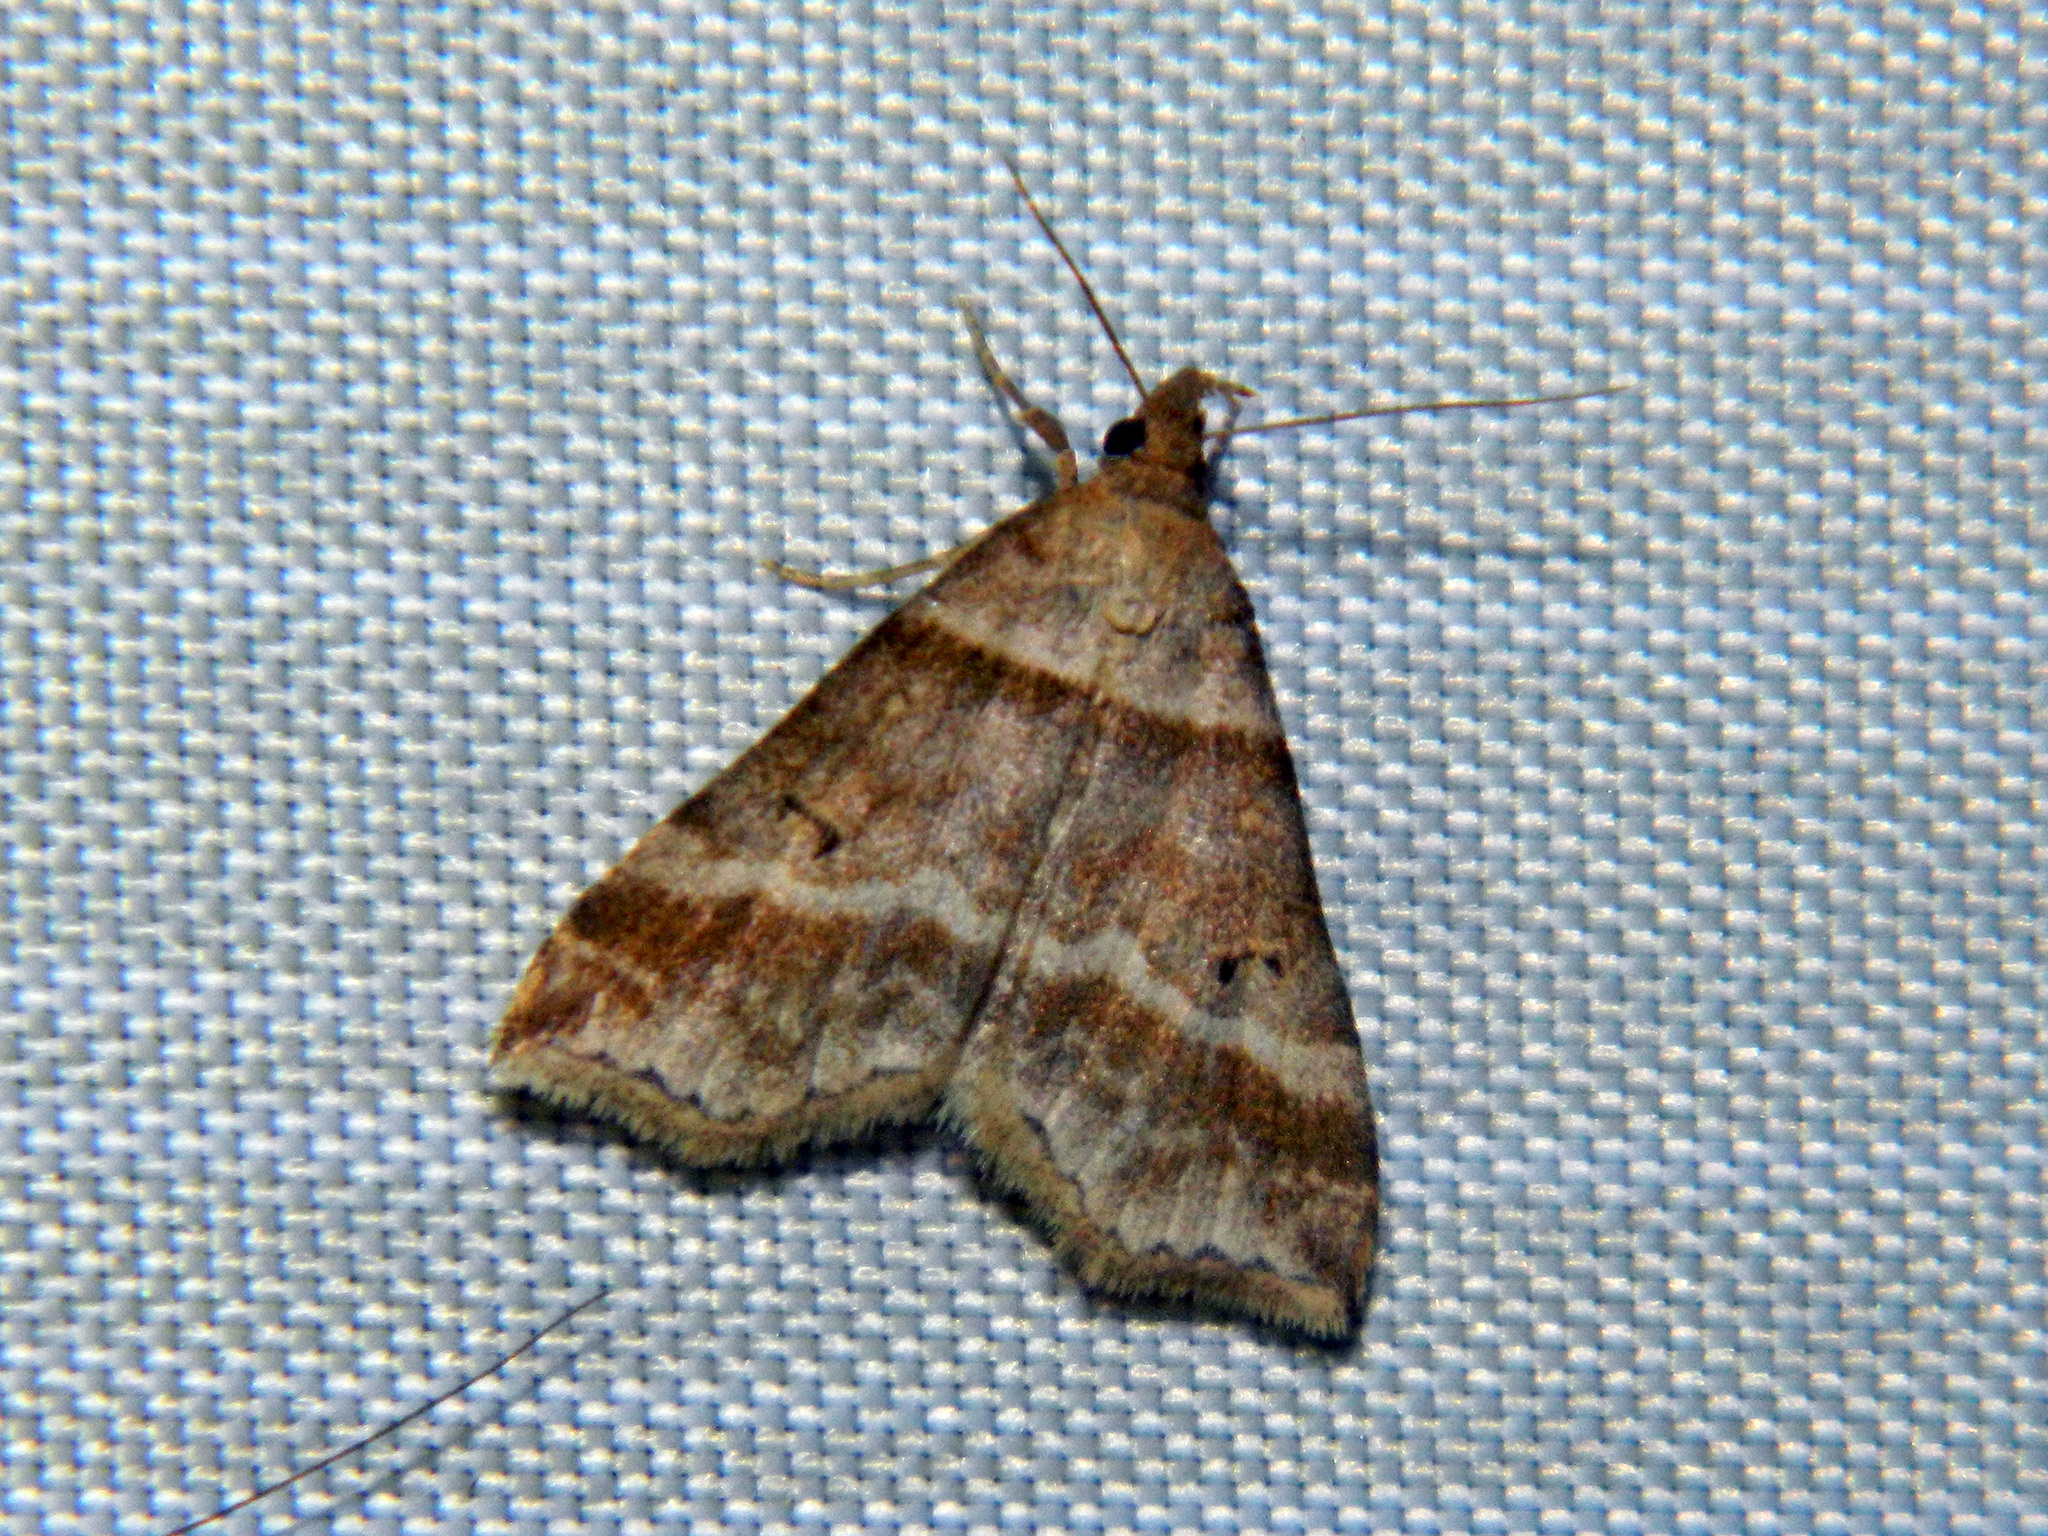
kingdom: Animalia
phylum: Arthropoda
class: Insecta
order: Lepidoptera
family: Erebidae
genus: Phaeolita
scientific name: Phaeolita pyramusalis
